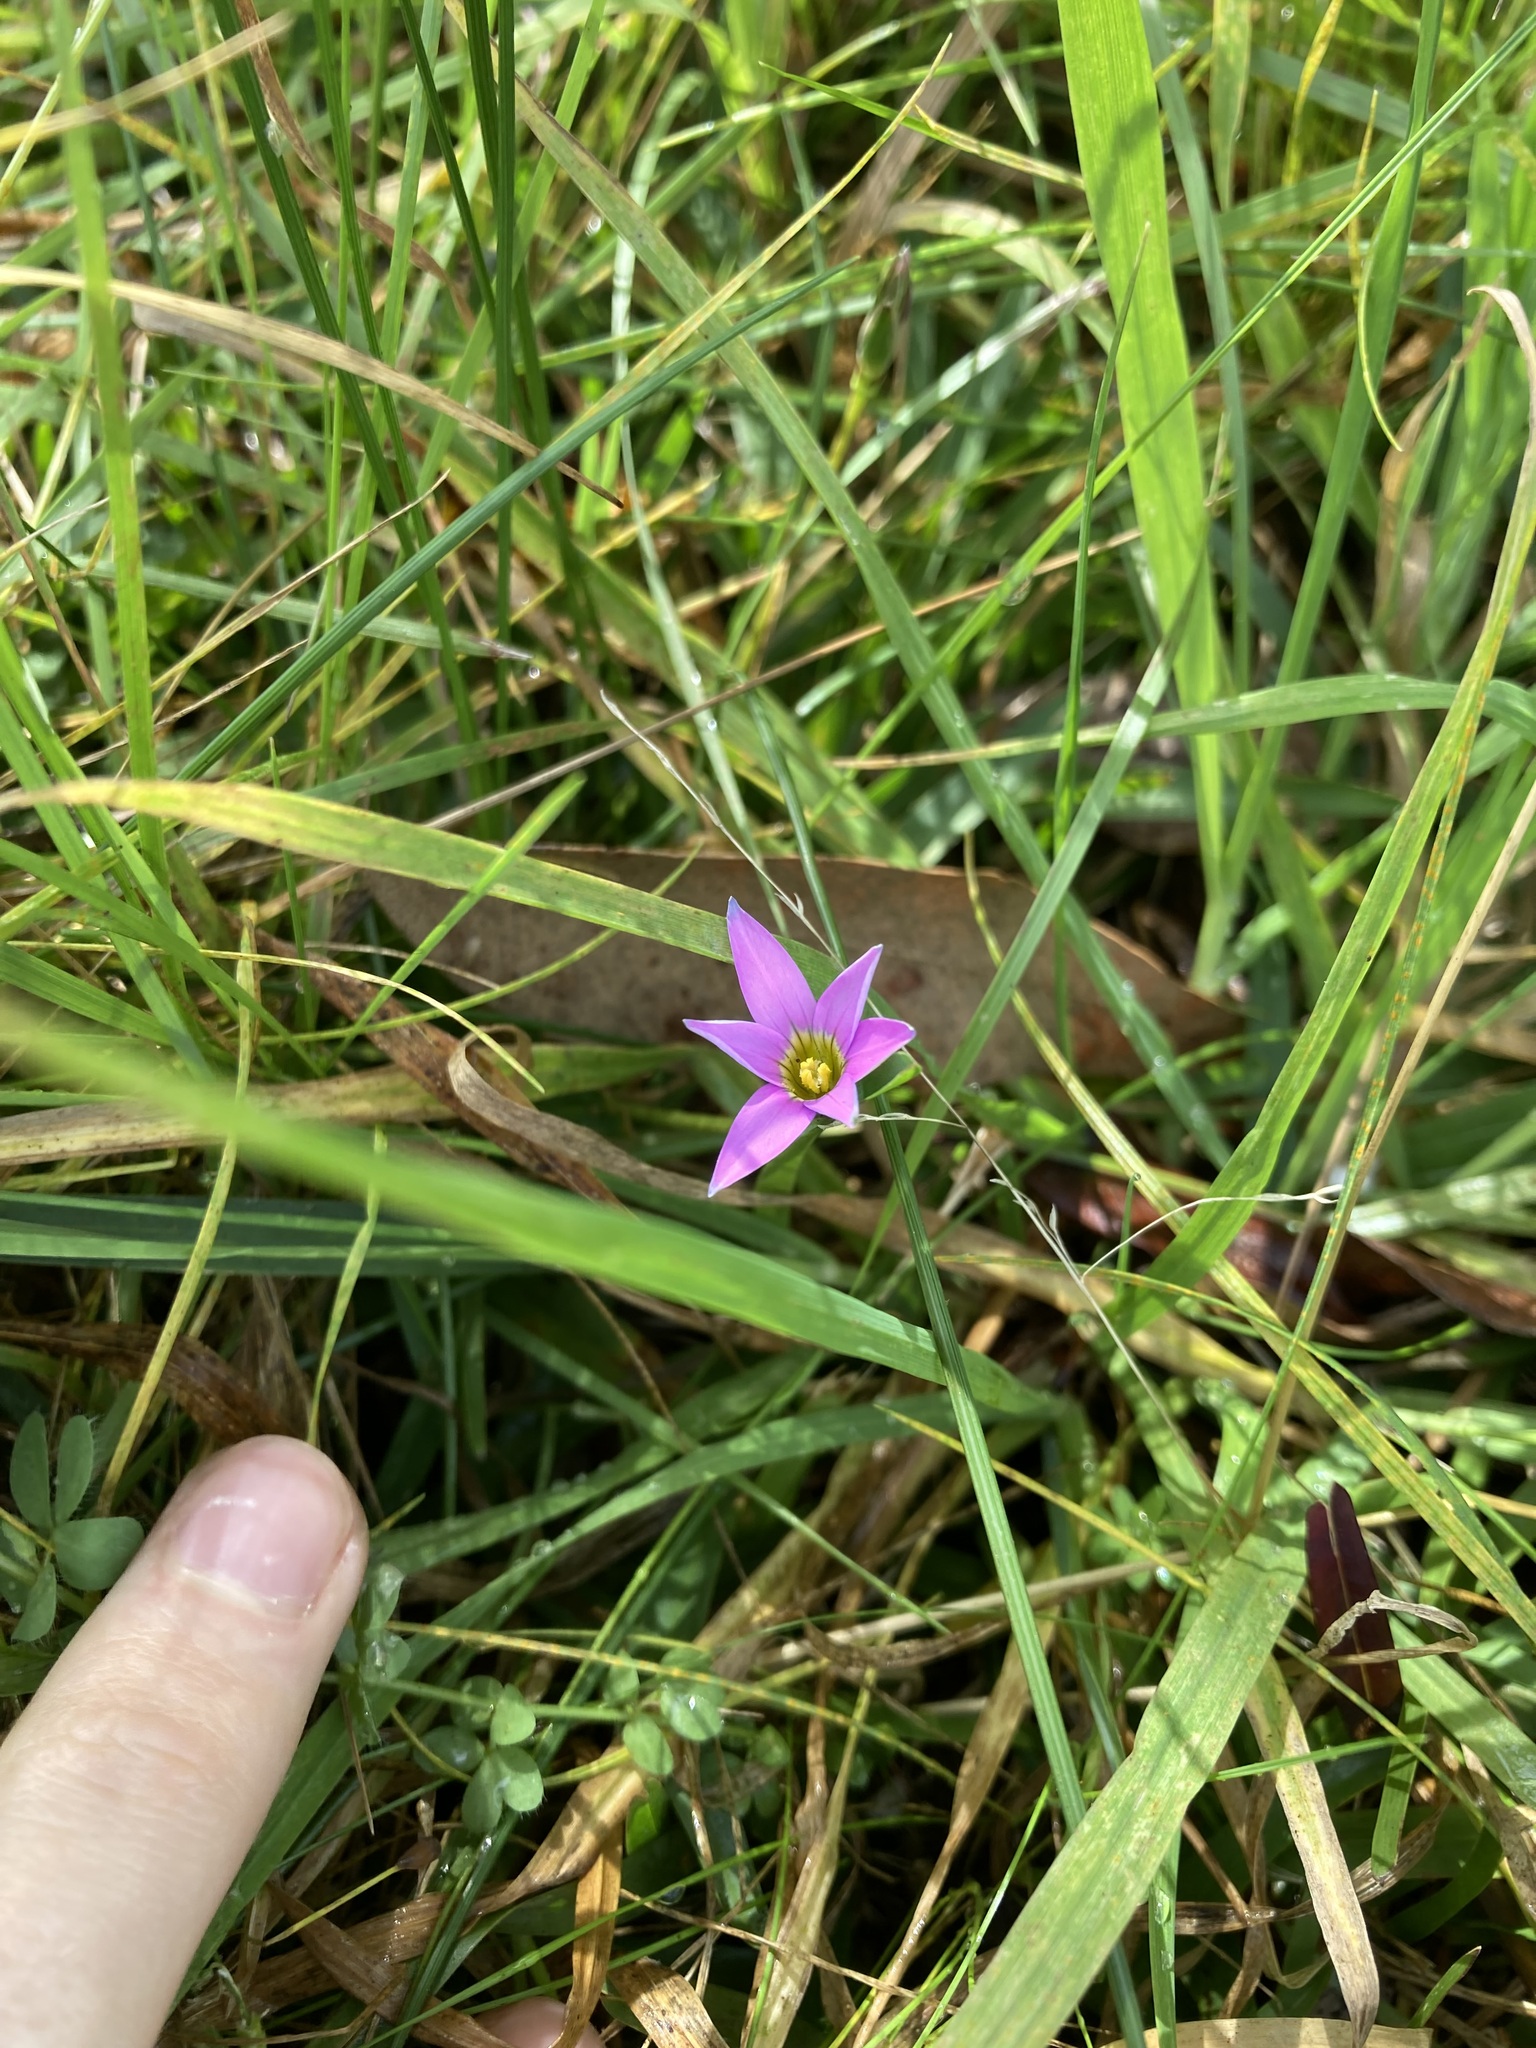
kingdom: Plantae
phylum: Tracheophyta
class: Liliopsida
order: Asparagales
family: Iridaceae
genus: Romulea
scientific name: Romulea rosea
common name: Oniongrass
